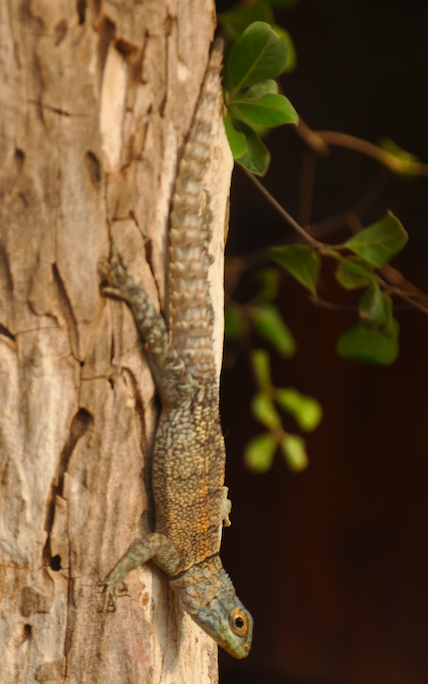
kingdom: Animalia
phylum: Chordata
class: Squamata
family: Opluridae
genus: Oplurus
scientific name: Oplurus cuvieri
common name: Cuvier's madagascar swift
